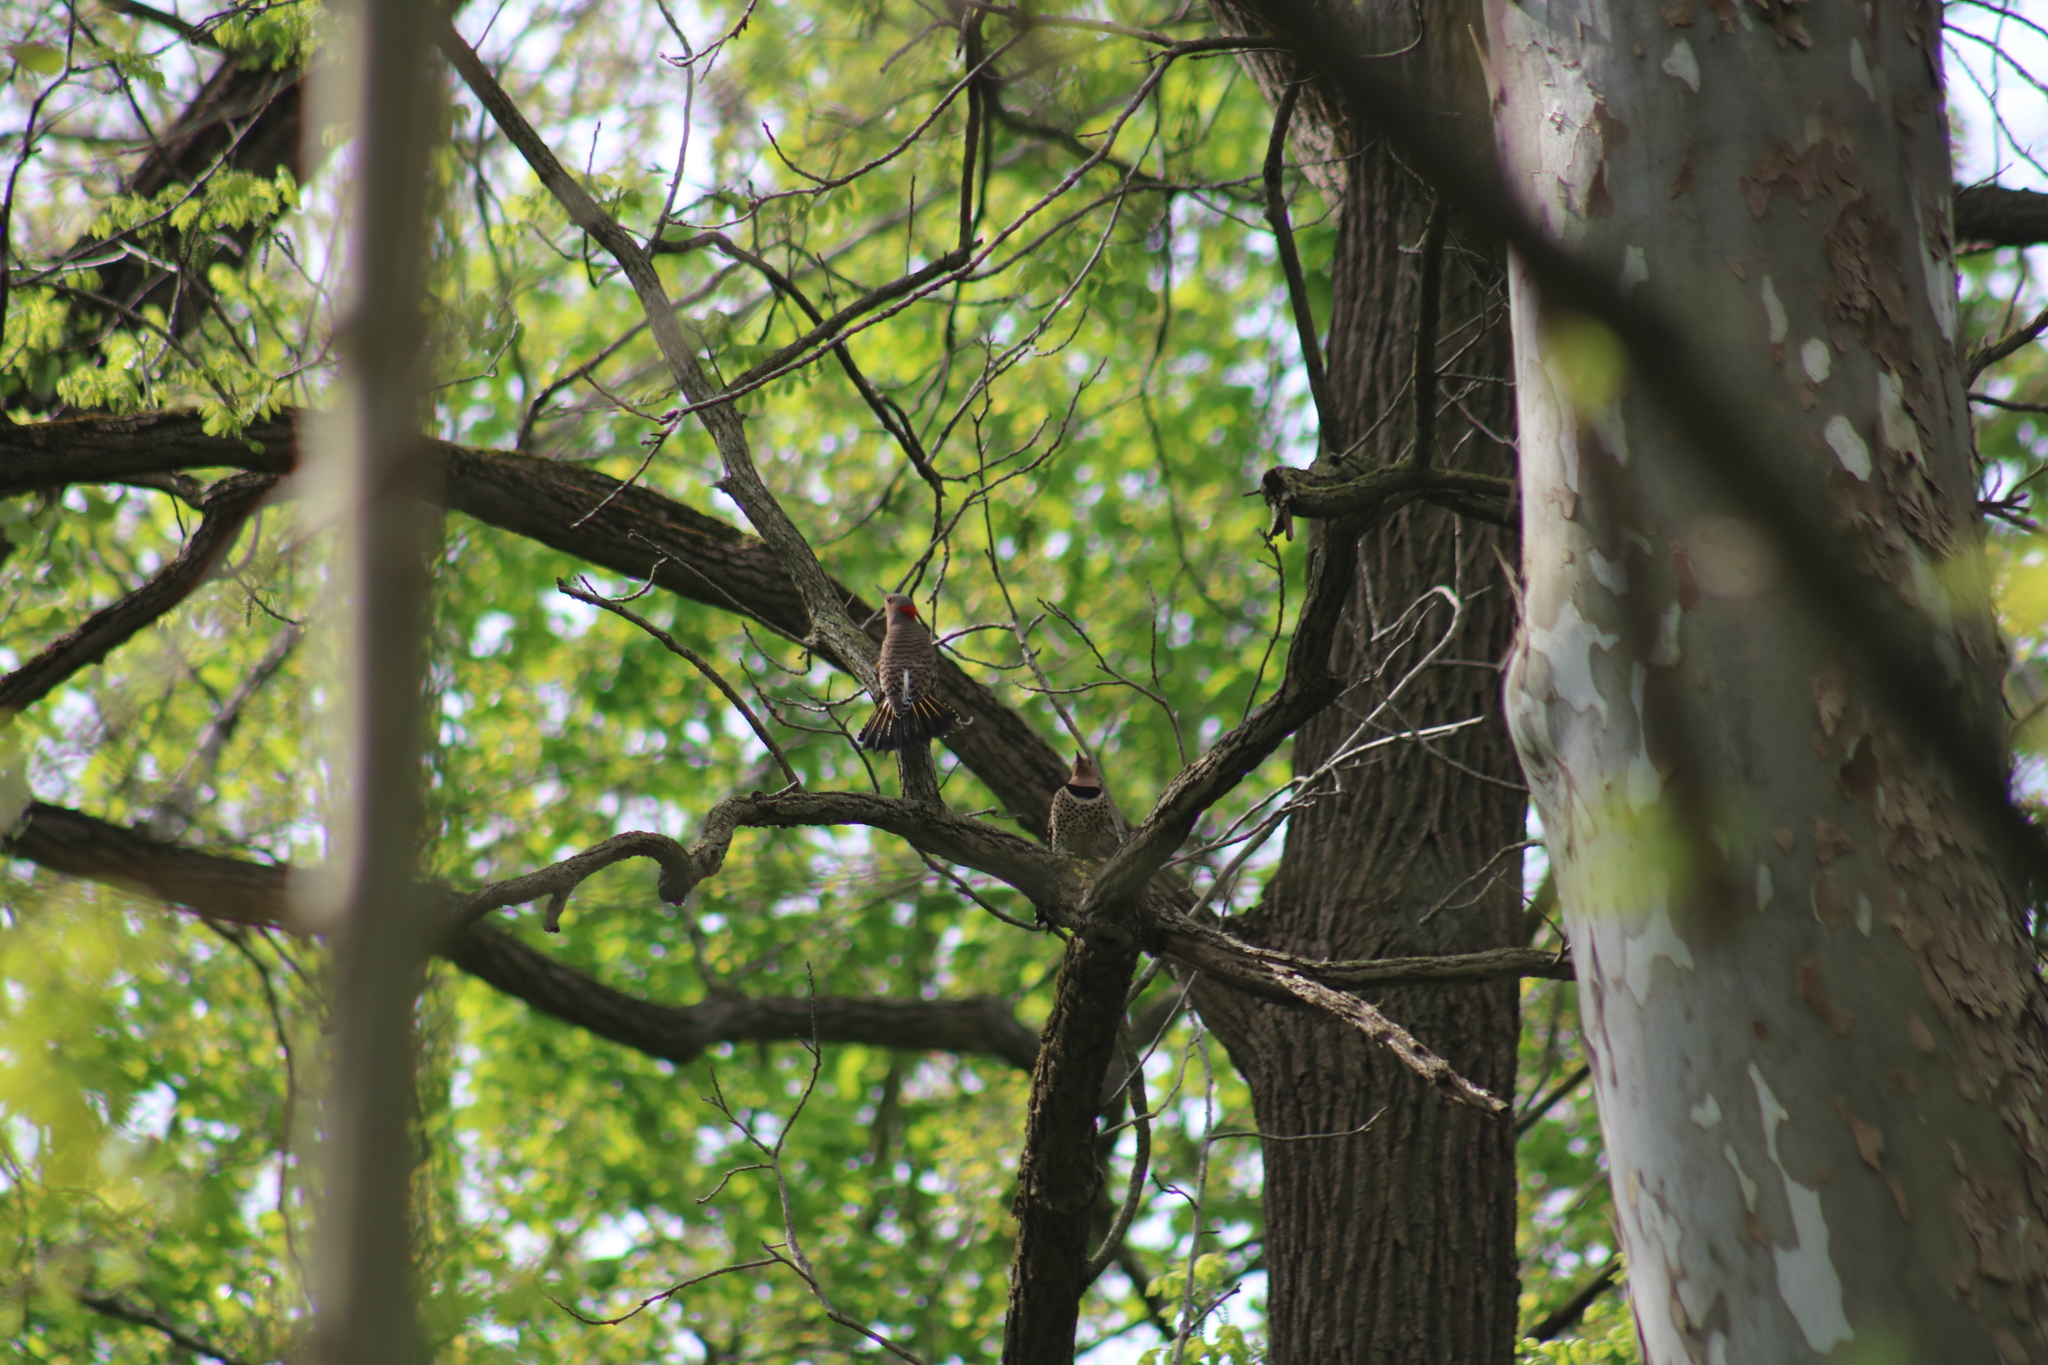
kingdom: Animalia
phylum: Chordata
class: Aves
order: Piciformes
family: Picidae
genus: Colaptes
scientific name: Colaptes auratus
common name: Northern flicker
